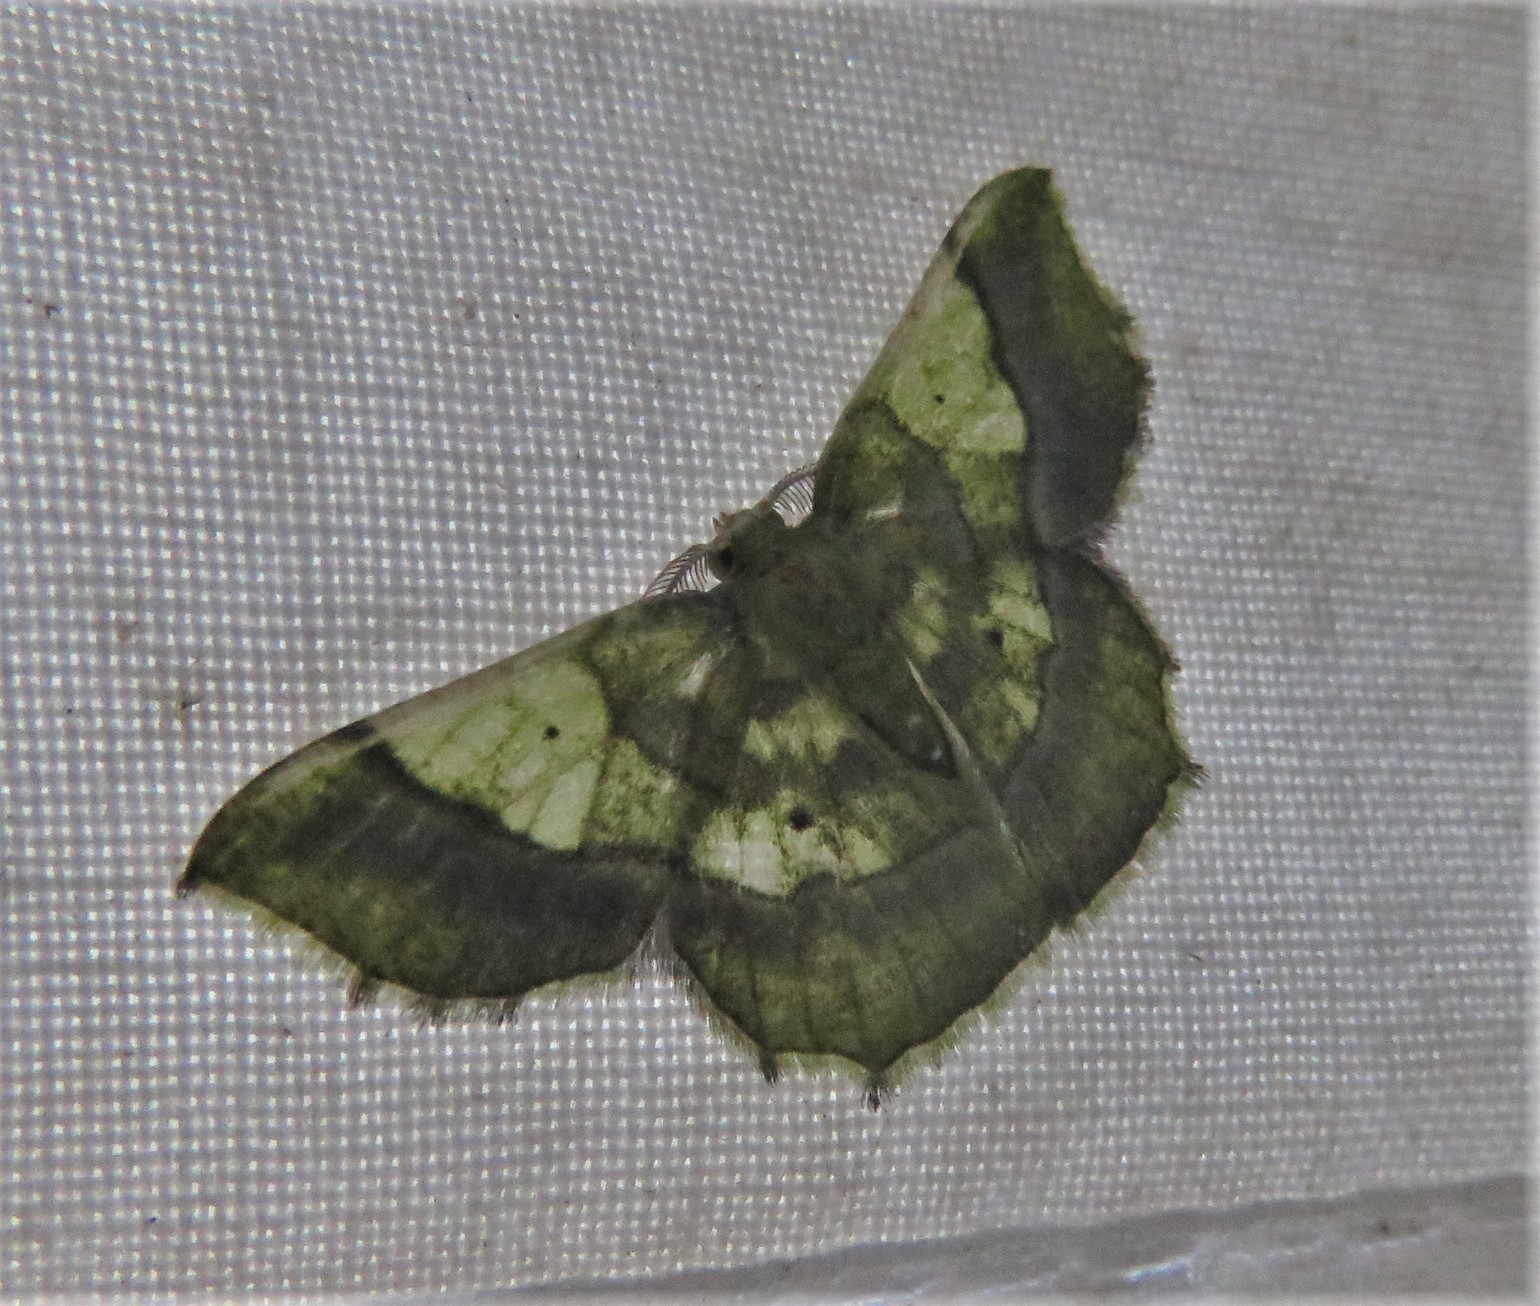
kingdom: Animalia
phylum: Arthropoda
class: Insecta
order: Lepidoptera
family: Geometridae
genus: Neagathia
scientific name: Neagathia corruptata
